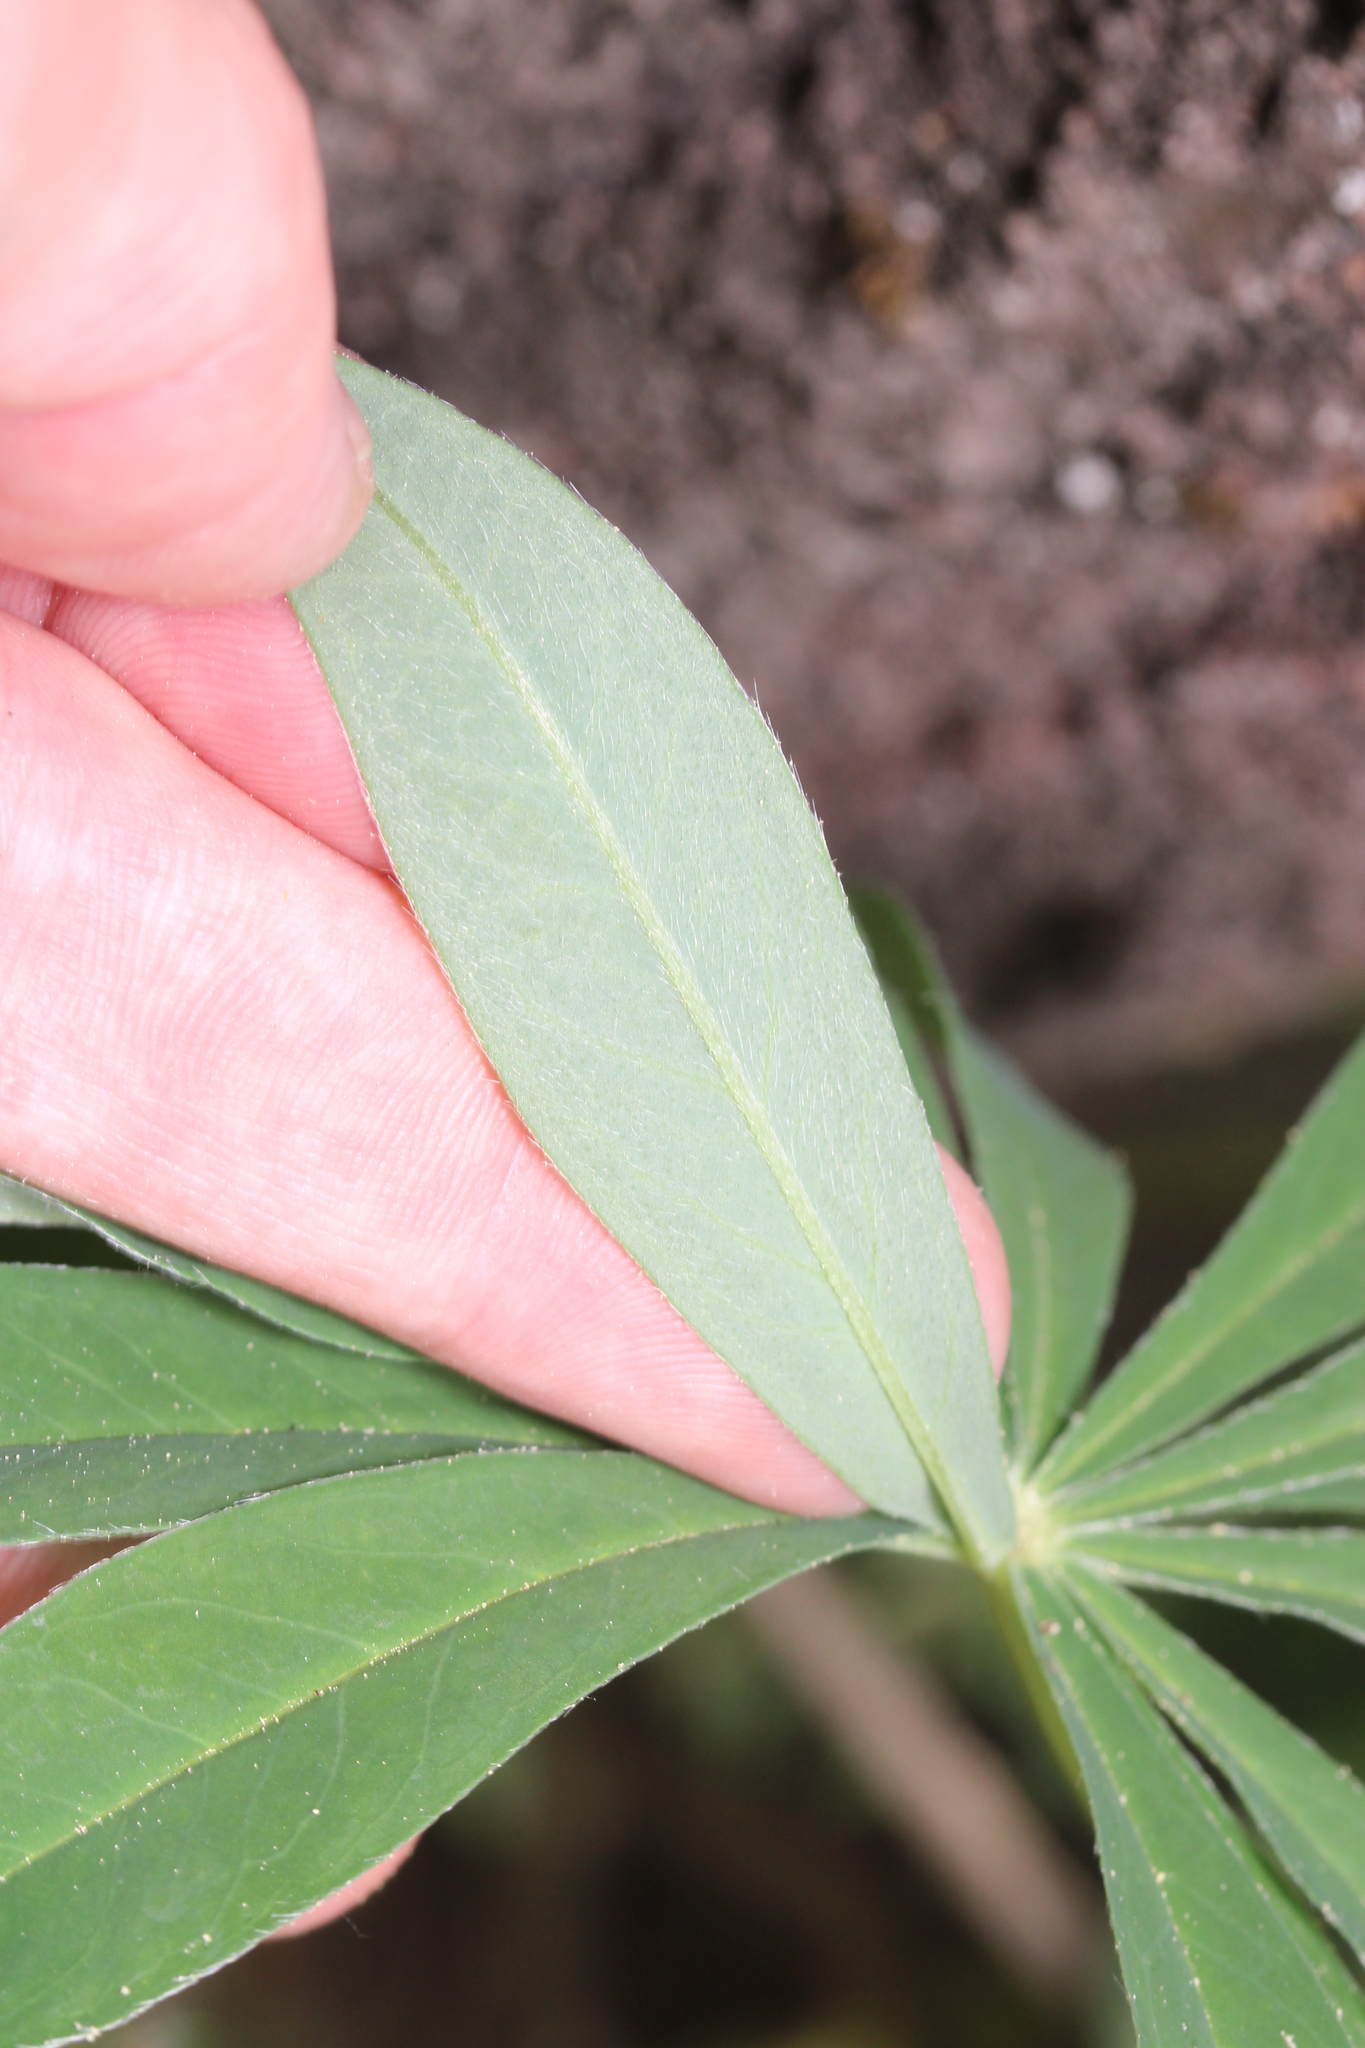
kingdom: Plantae
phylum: Tracheophyta
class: Magnoliopsida
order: Fabales
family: Fabaceae
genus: Lupinus
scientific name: Lupinus polyphyllus
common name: Garden lupin
